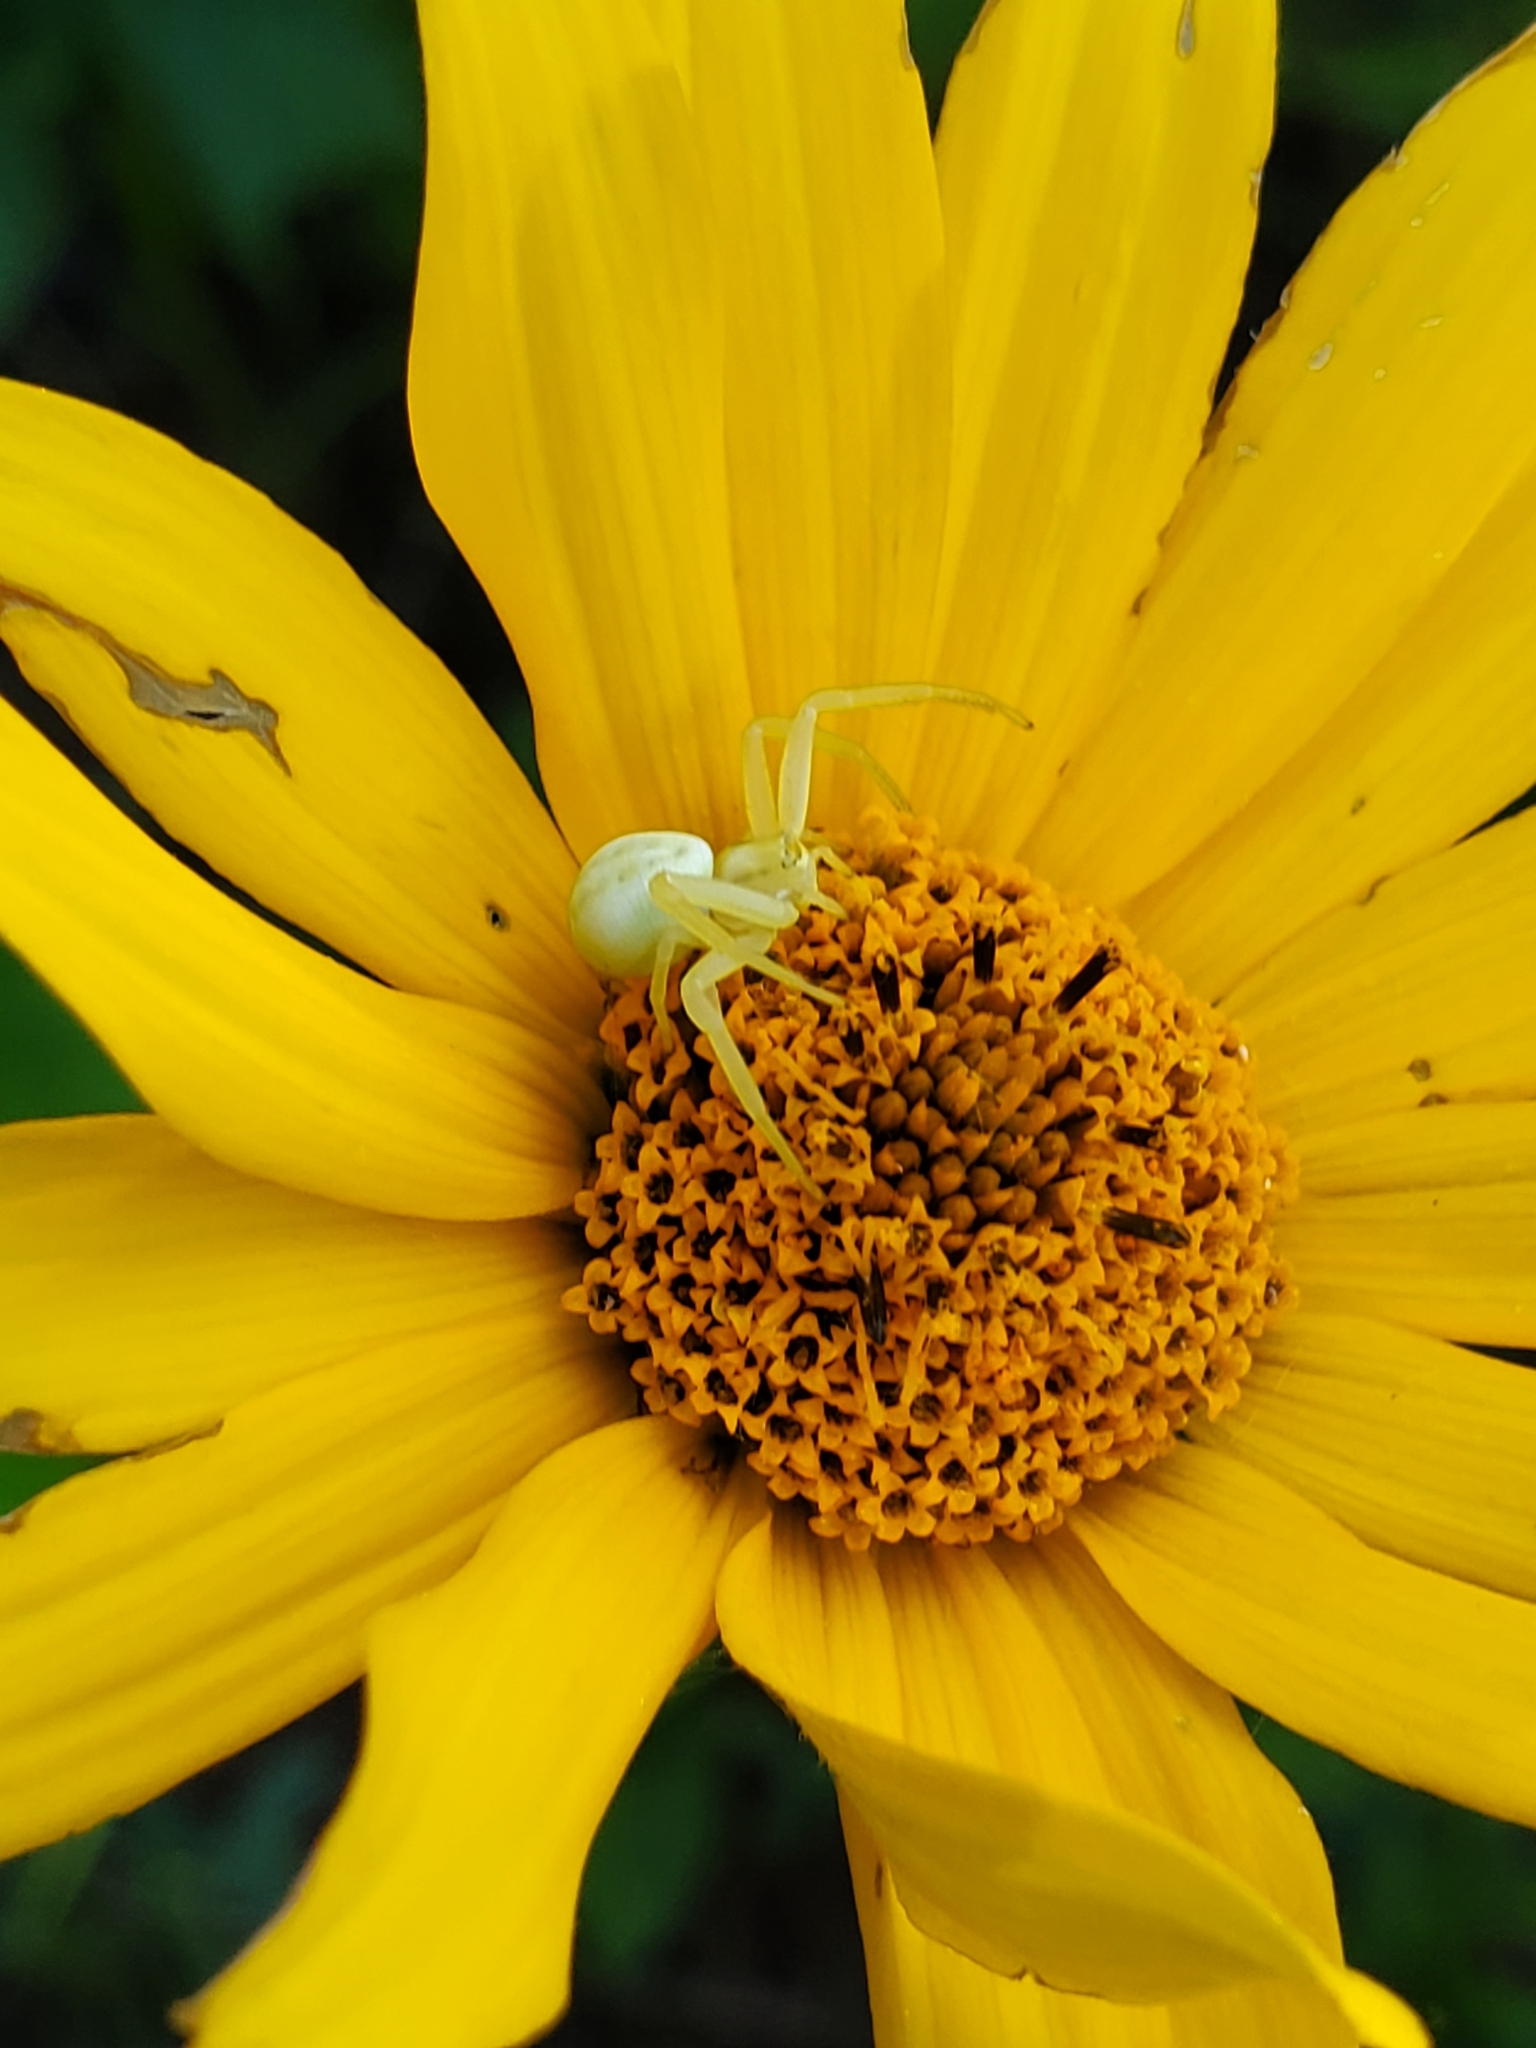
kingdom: Animalia
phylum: Arthropoda
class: Arachnida
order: Araneae
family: Thomisidae
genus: Misumena
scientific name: Misumena vatia
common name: Goldenrod crab spider
